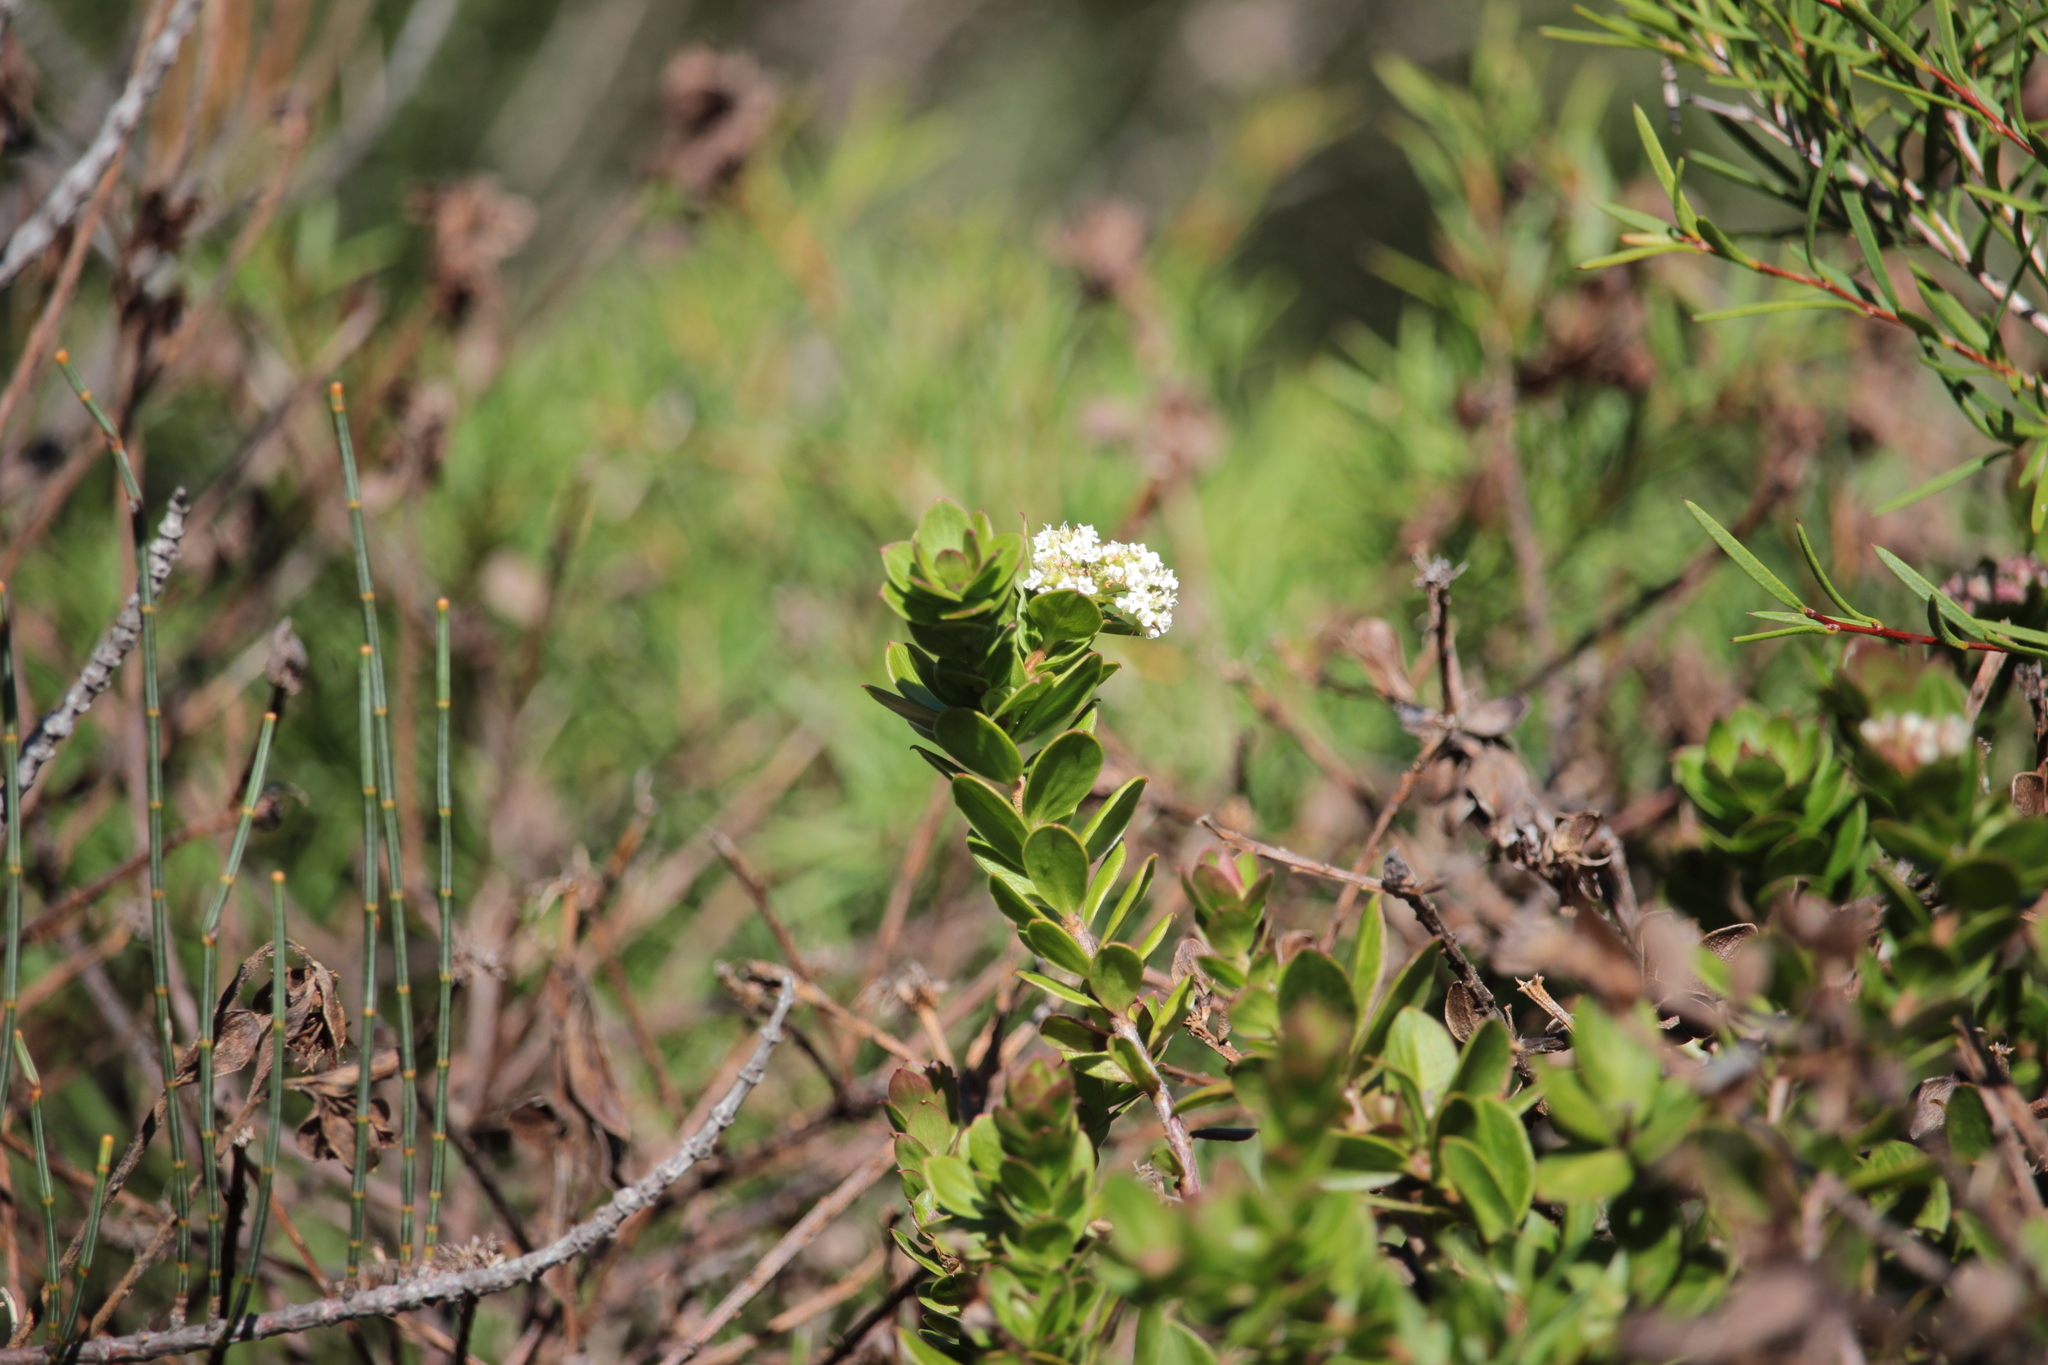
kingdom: Plantae
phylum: Tracheophyta
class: Magnoliopsida
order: Apiales
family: Apiaceae
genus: Platysace
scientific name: Platysace lanceolata
